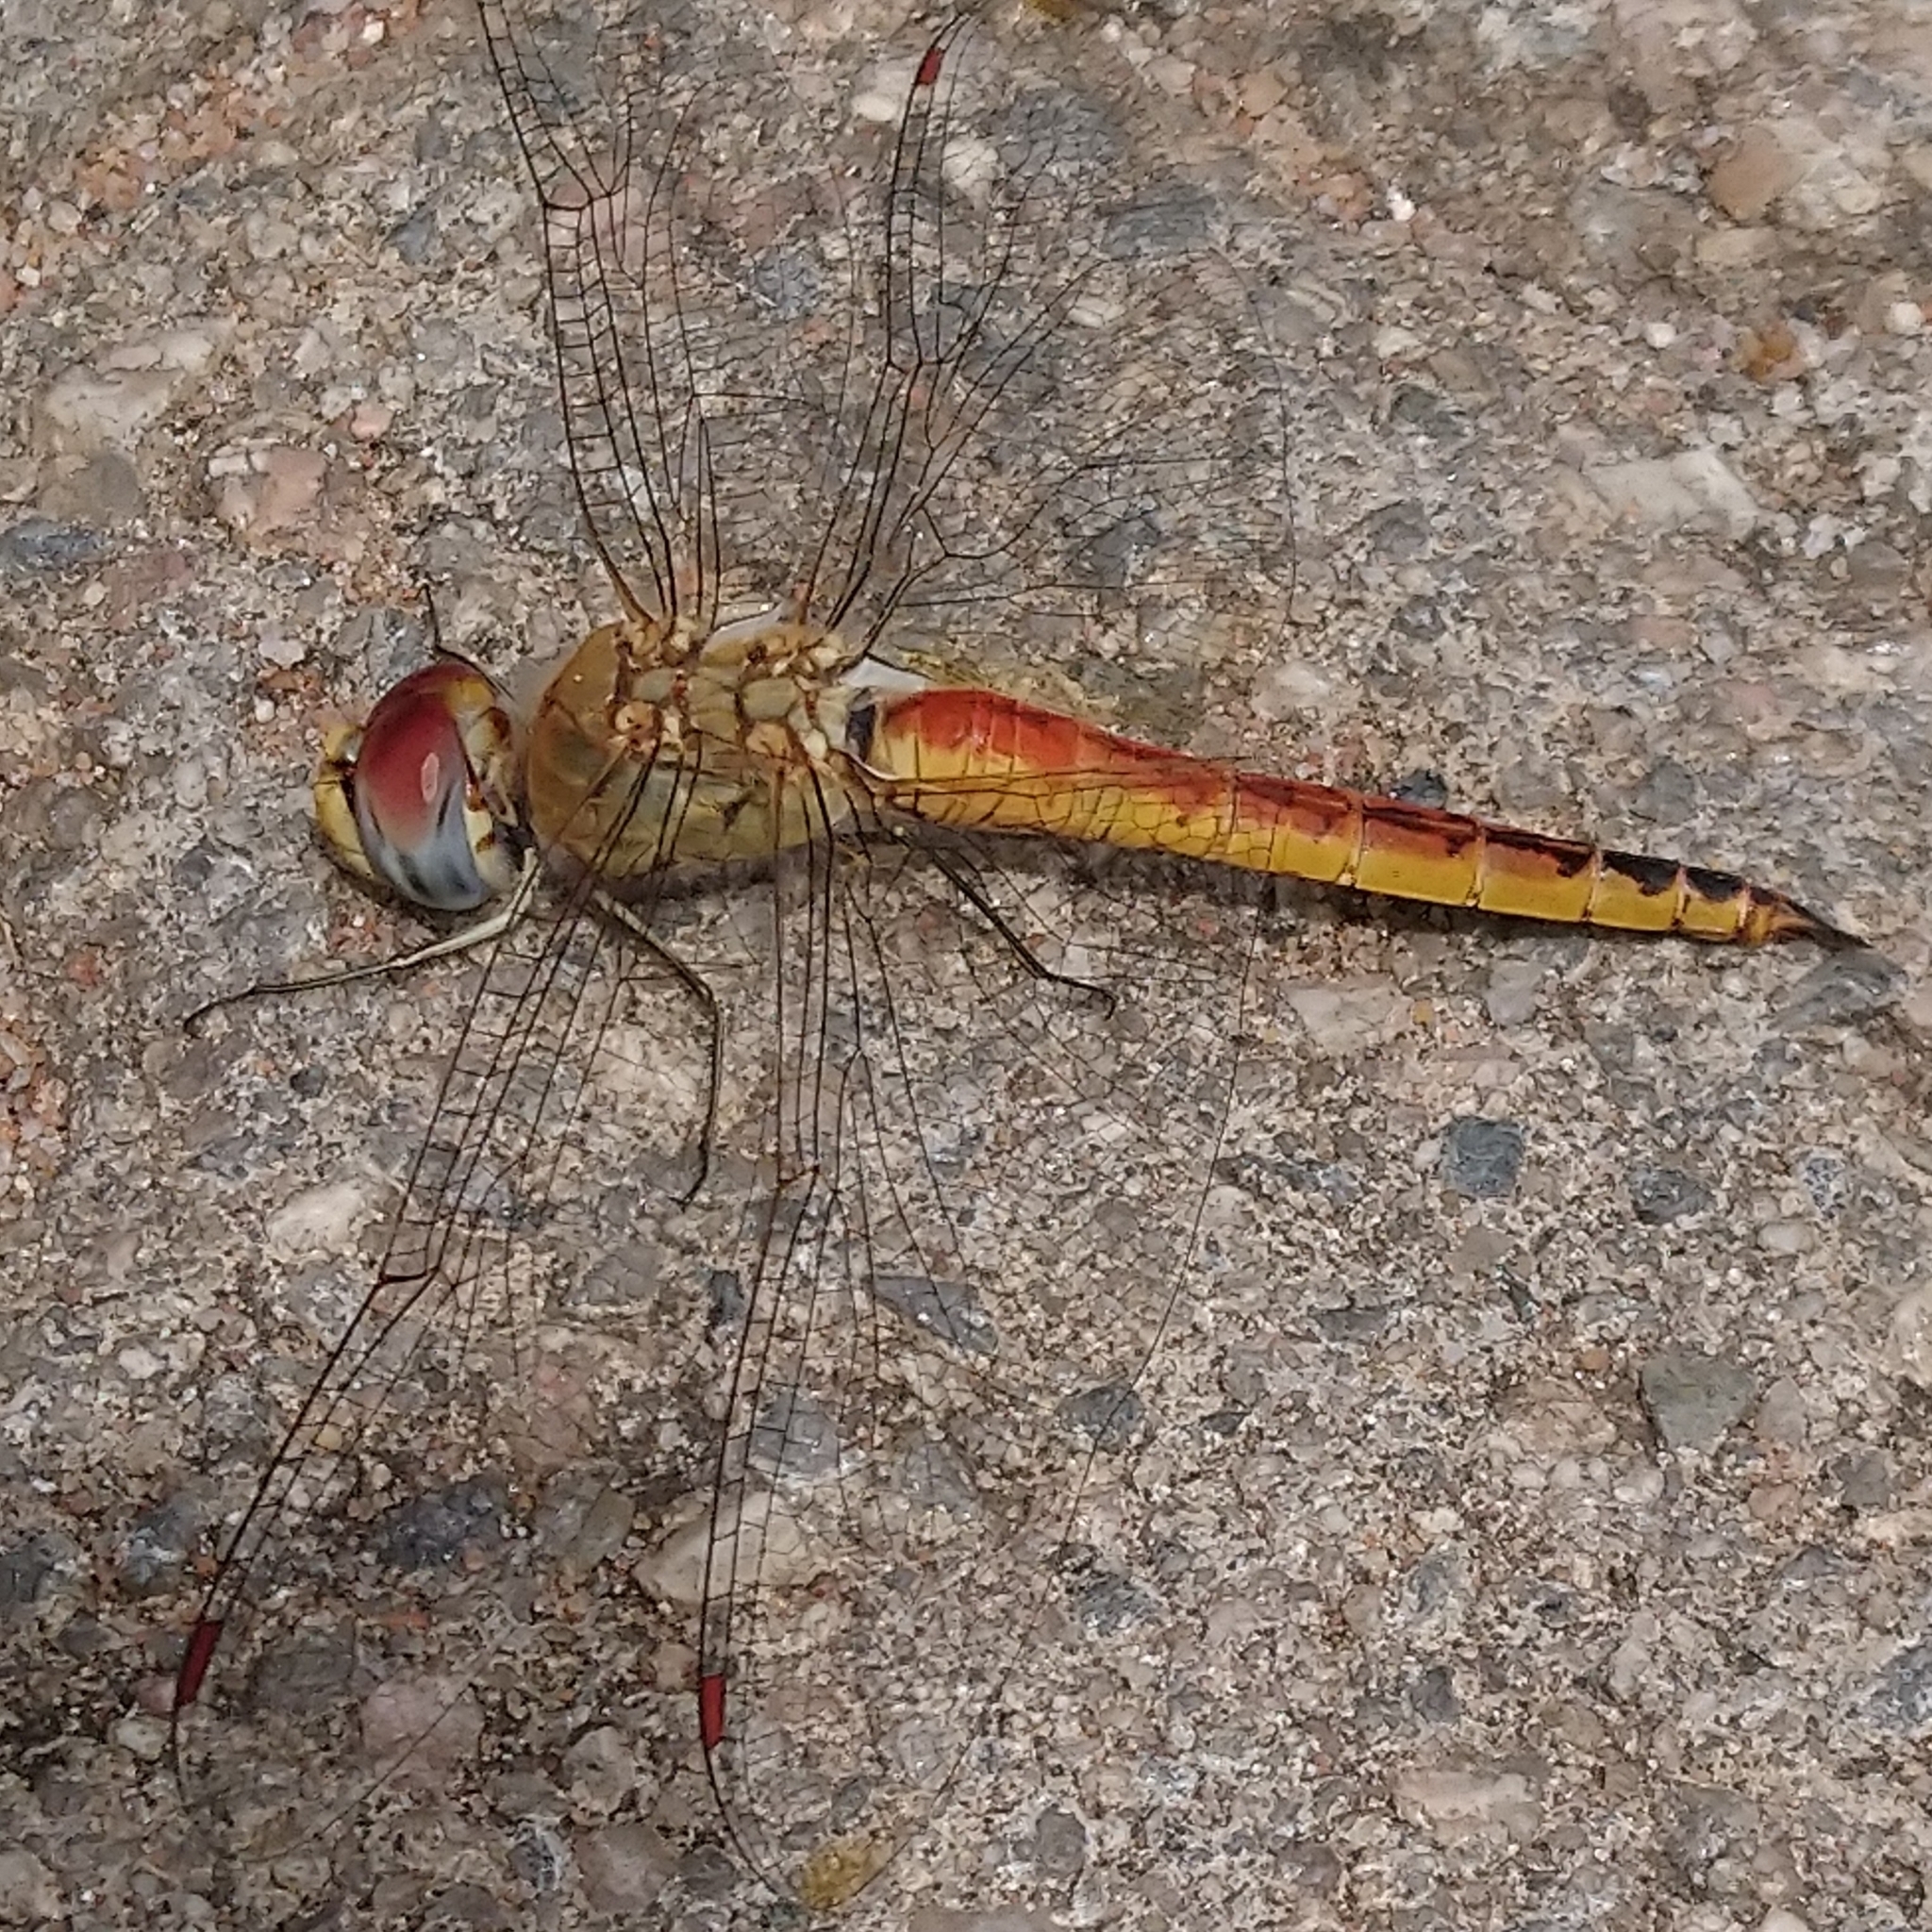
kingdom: Animalia
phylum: Arthropoda
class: Insecta
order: Odonata
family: Libellulidae
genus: Pantala
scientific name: Pantala flavescens
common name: Wandering glider
